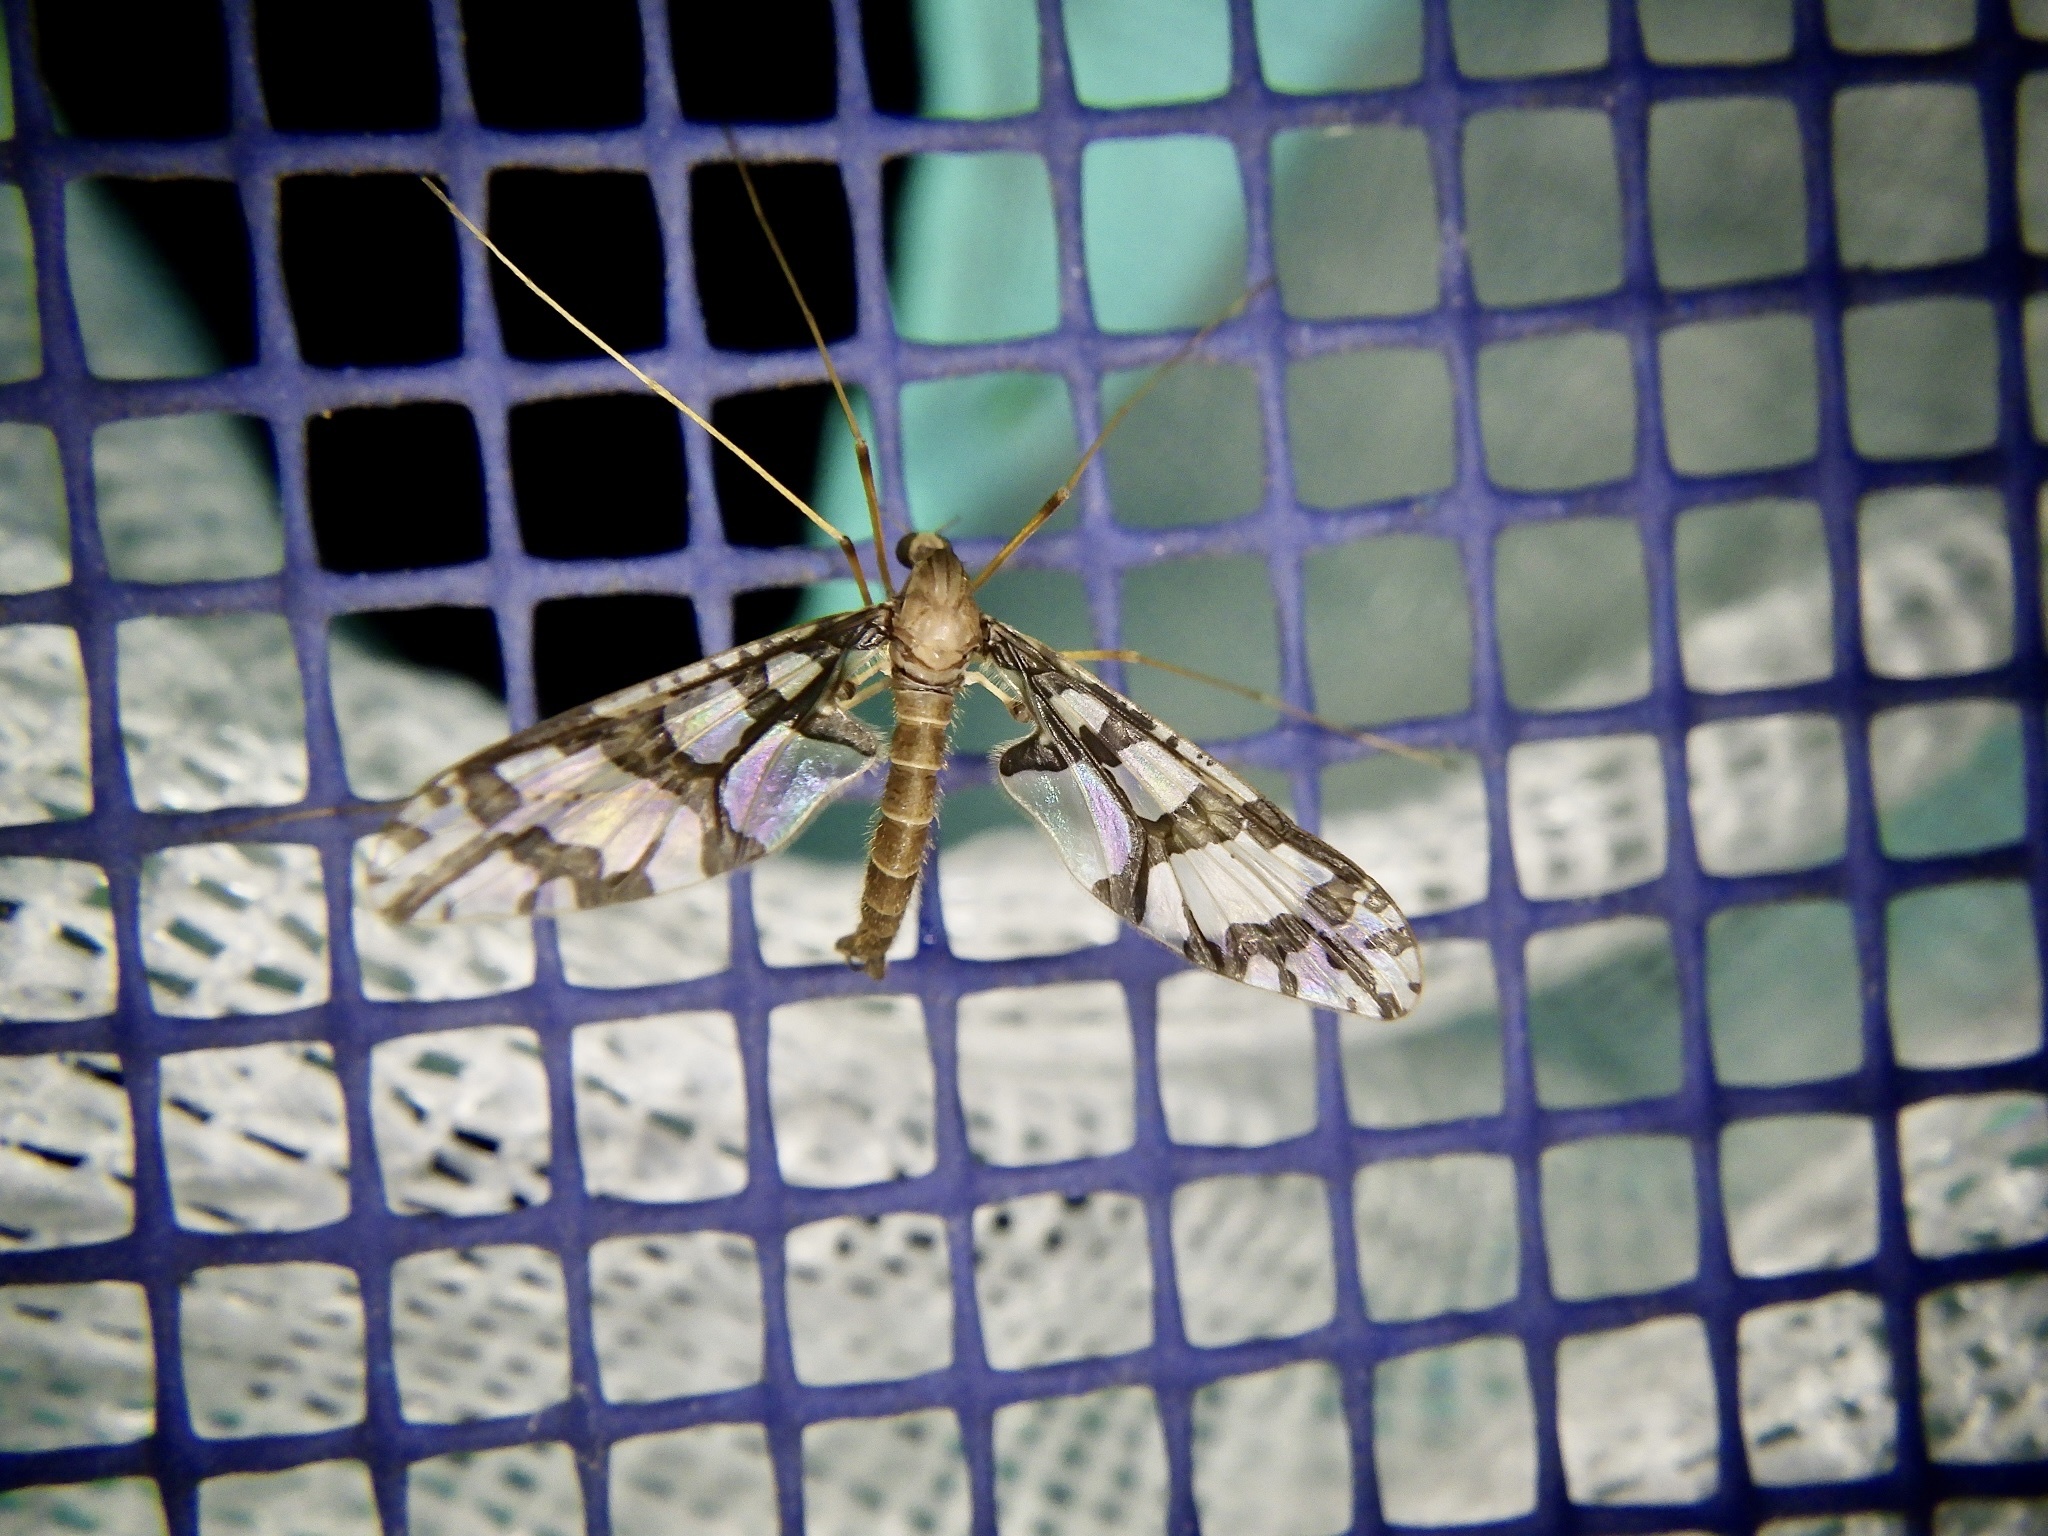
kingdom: Animalia
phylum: Arthropoda
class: Insecta
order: Diptera
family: Tanyderidae
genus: Protanyderus
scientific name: Protanyderus alexanderi
